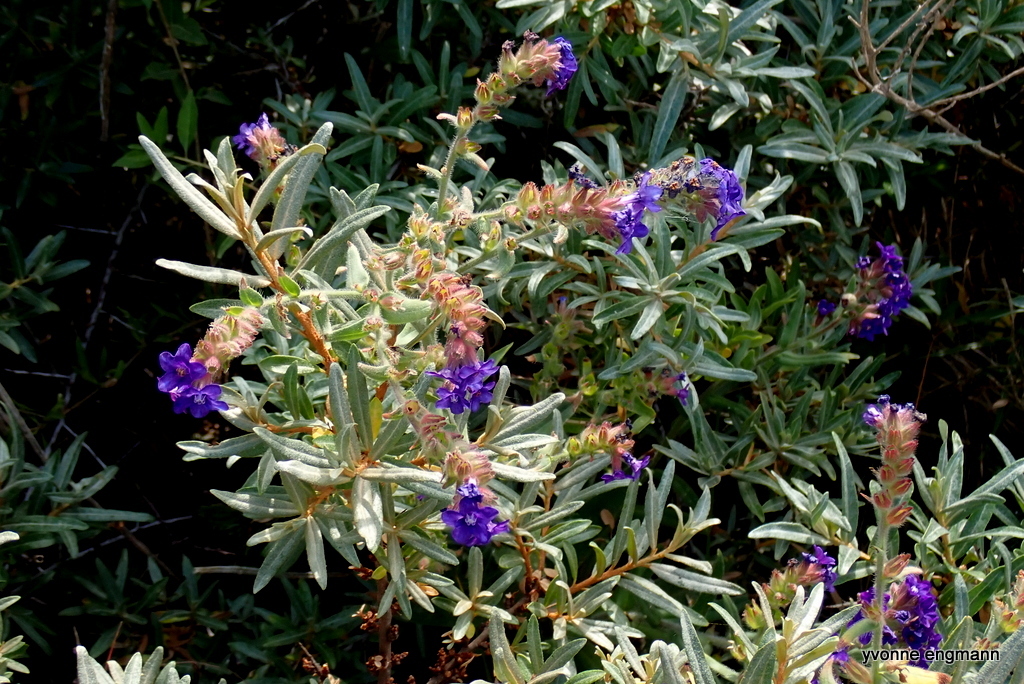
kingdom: Plantae
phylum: Tracheophyta
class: Magnoliopsida
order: Boraginales
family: Boraginaceae
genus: Anchusa
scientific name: Anchusa officinalis
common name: Alkanet
